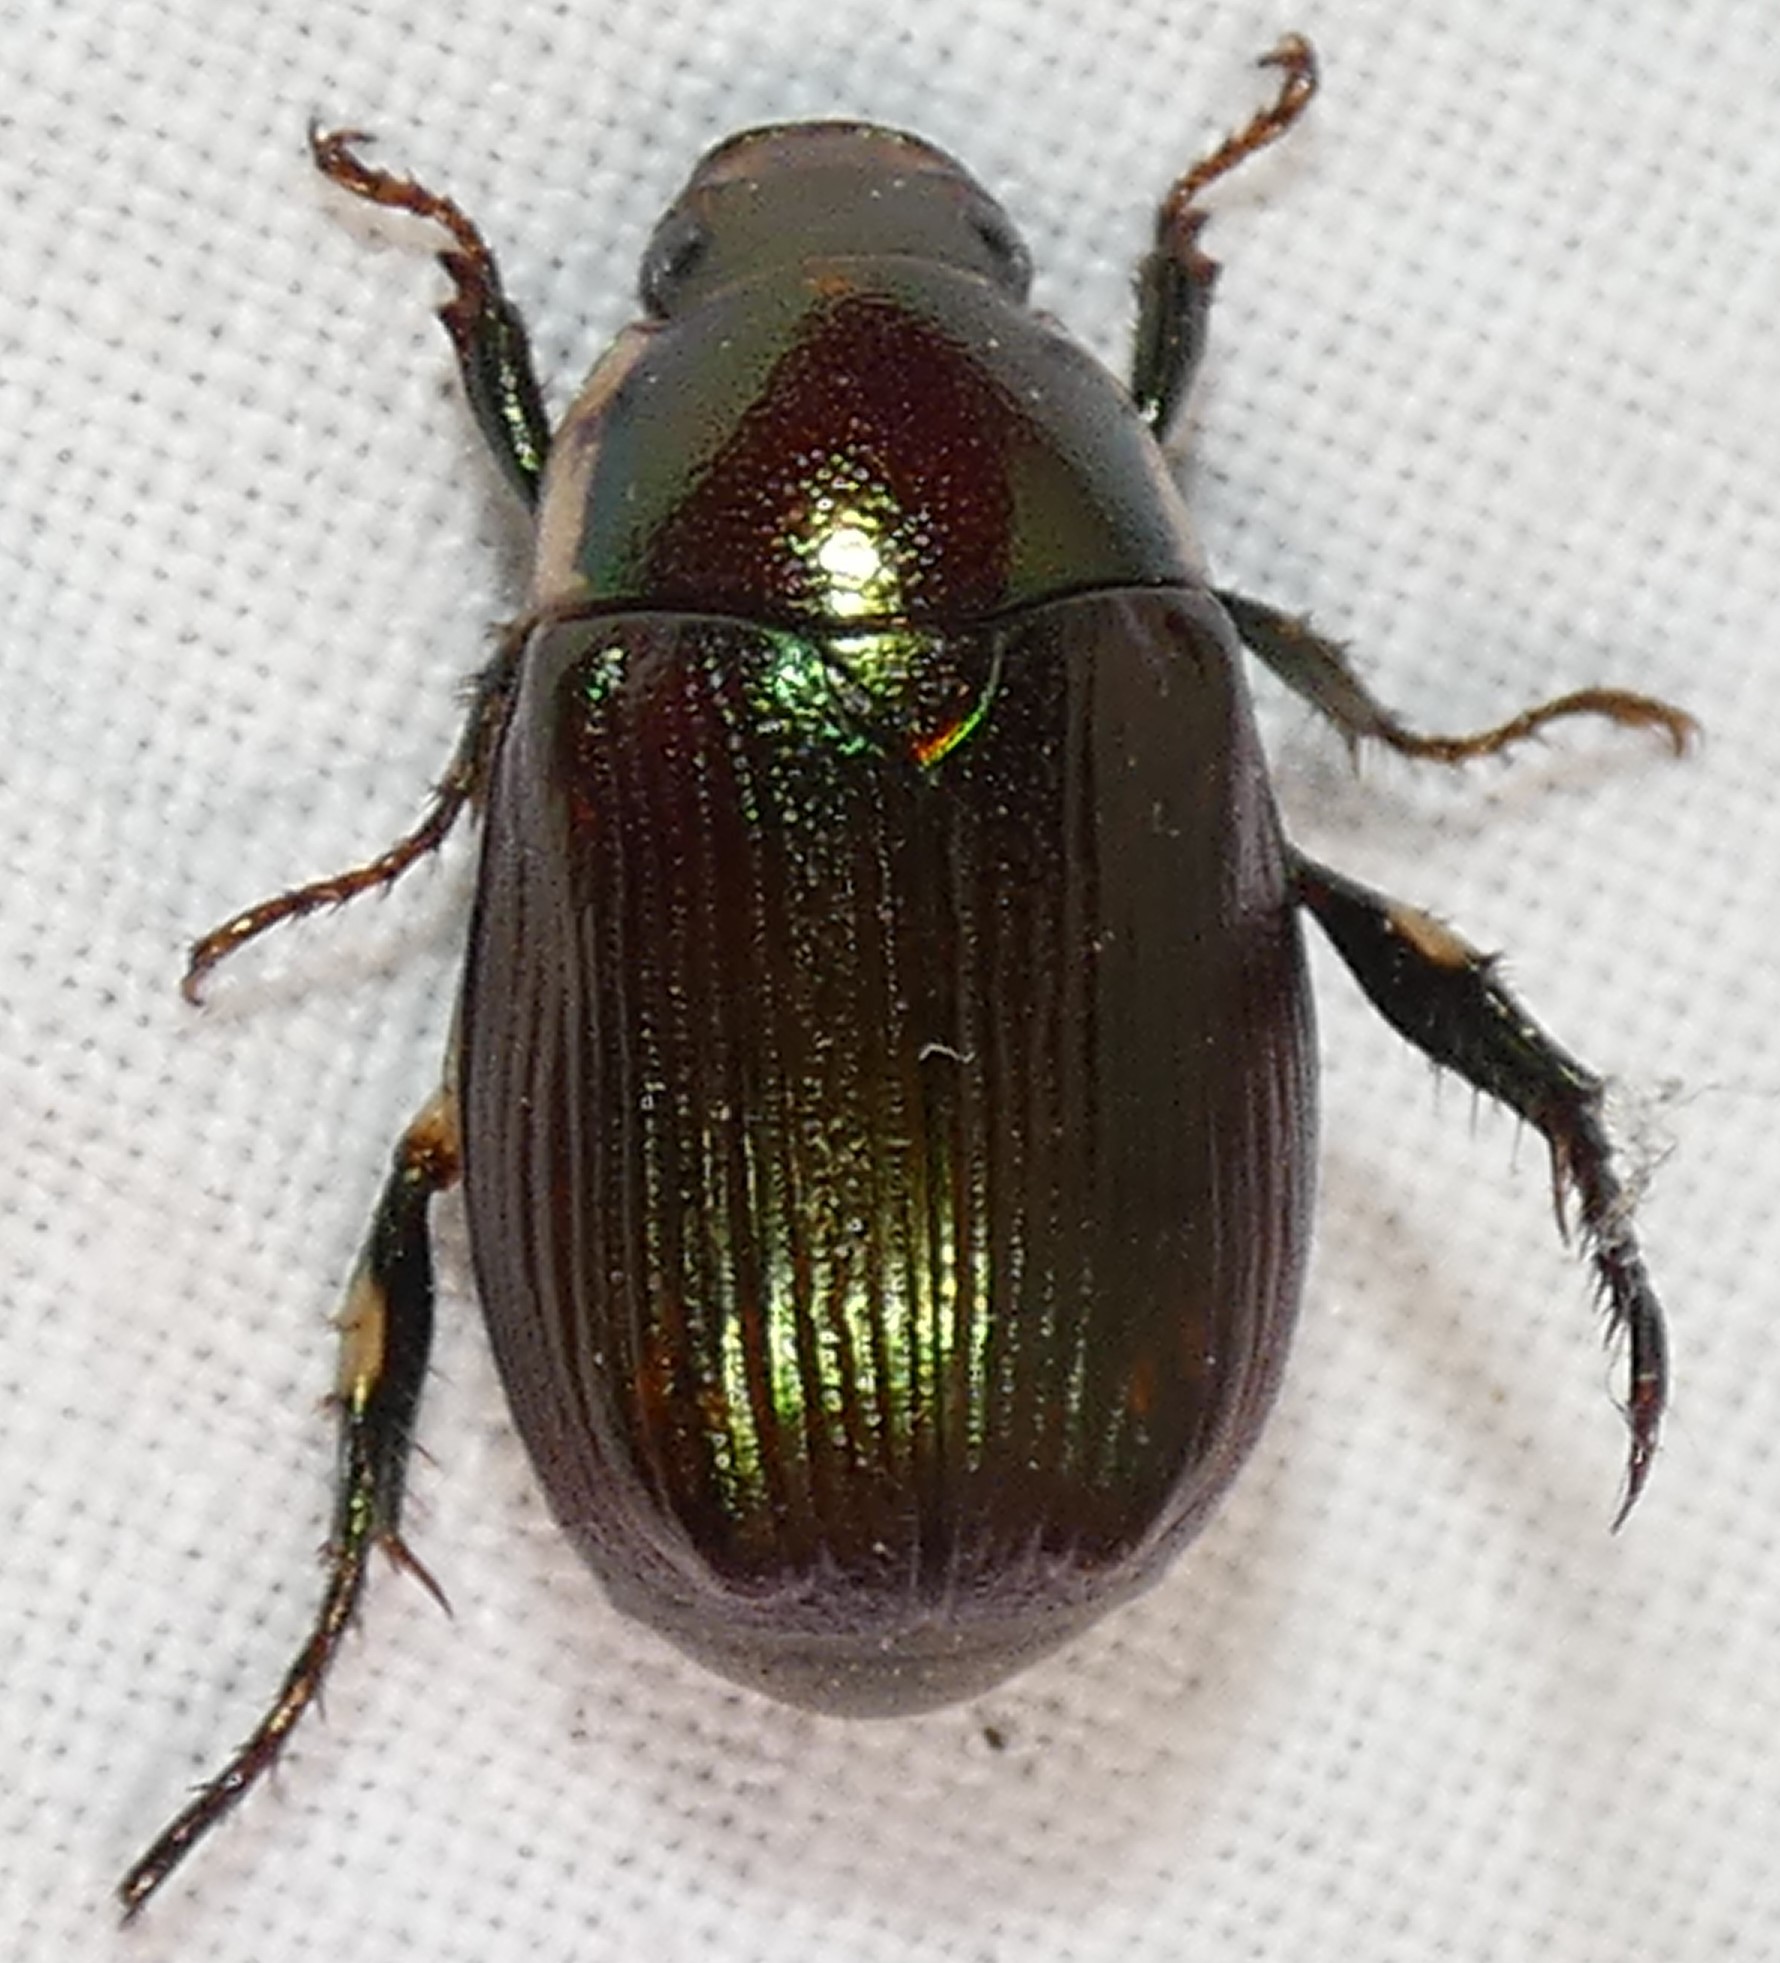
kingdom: Animalia
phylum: Arthropoda
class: Insecta
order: Coleoptera
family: Scarabaeidae
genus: Callistethus
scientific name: Callistethus marginatus
